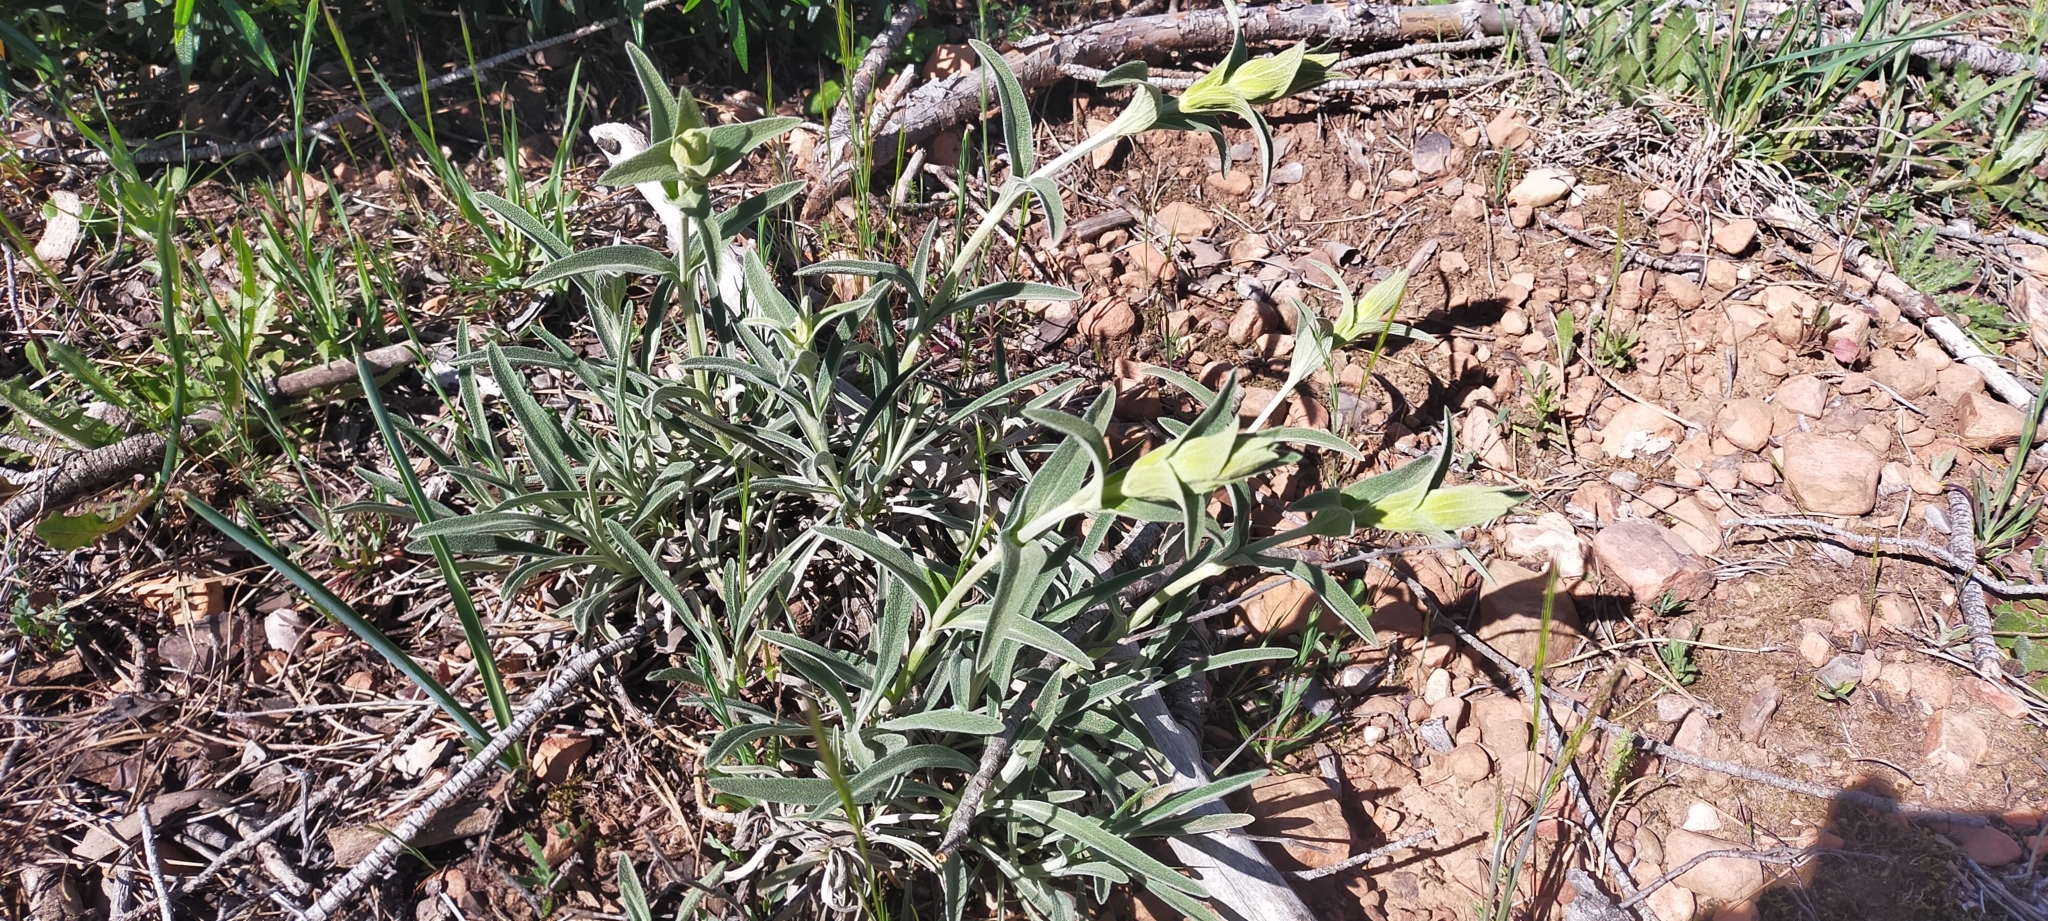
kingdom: Plantae
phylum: Tracheophyta
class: Magnoliopsida
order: Lamiales
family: Lamiaceae
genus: Phlomis
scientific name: Phlomis lychnitis
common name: Lampwickplant
